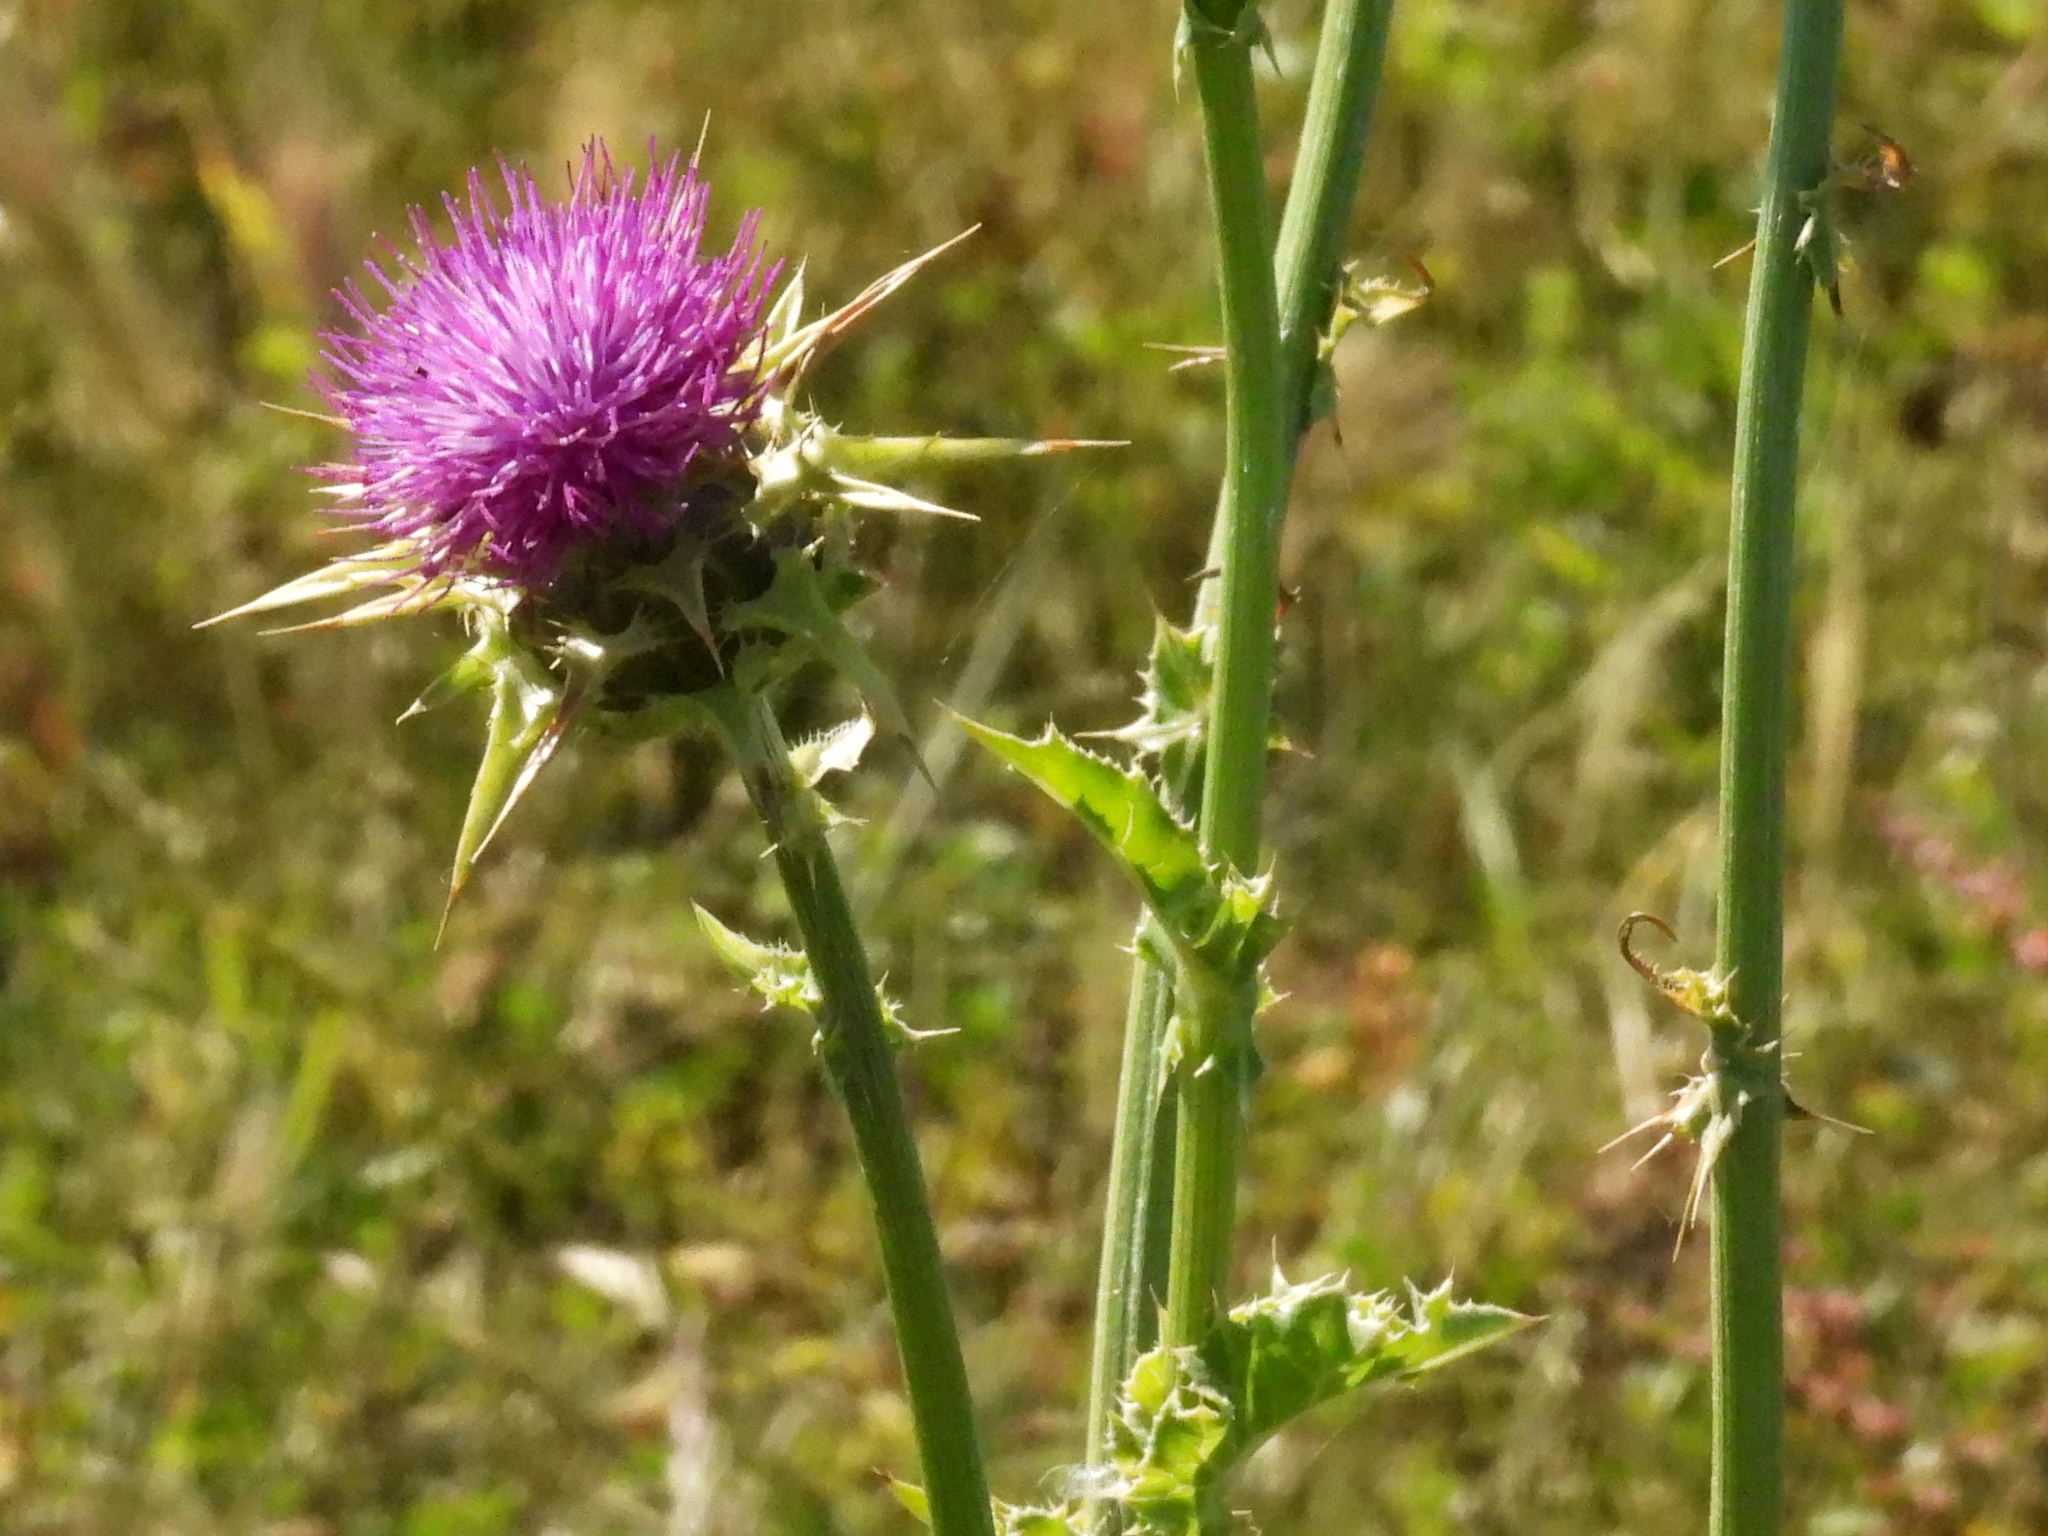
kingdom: Plantae
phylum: Tracheophyta
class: Magnoliopsida
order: Asterales
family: Asteraceae
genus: Silybum
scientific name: Silybum marianum
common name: Milk thistle
